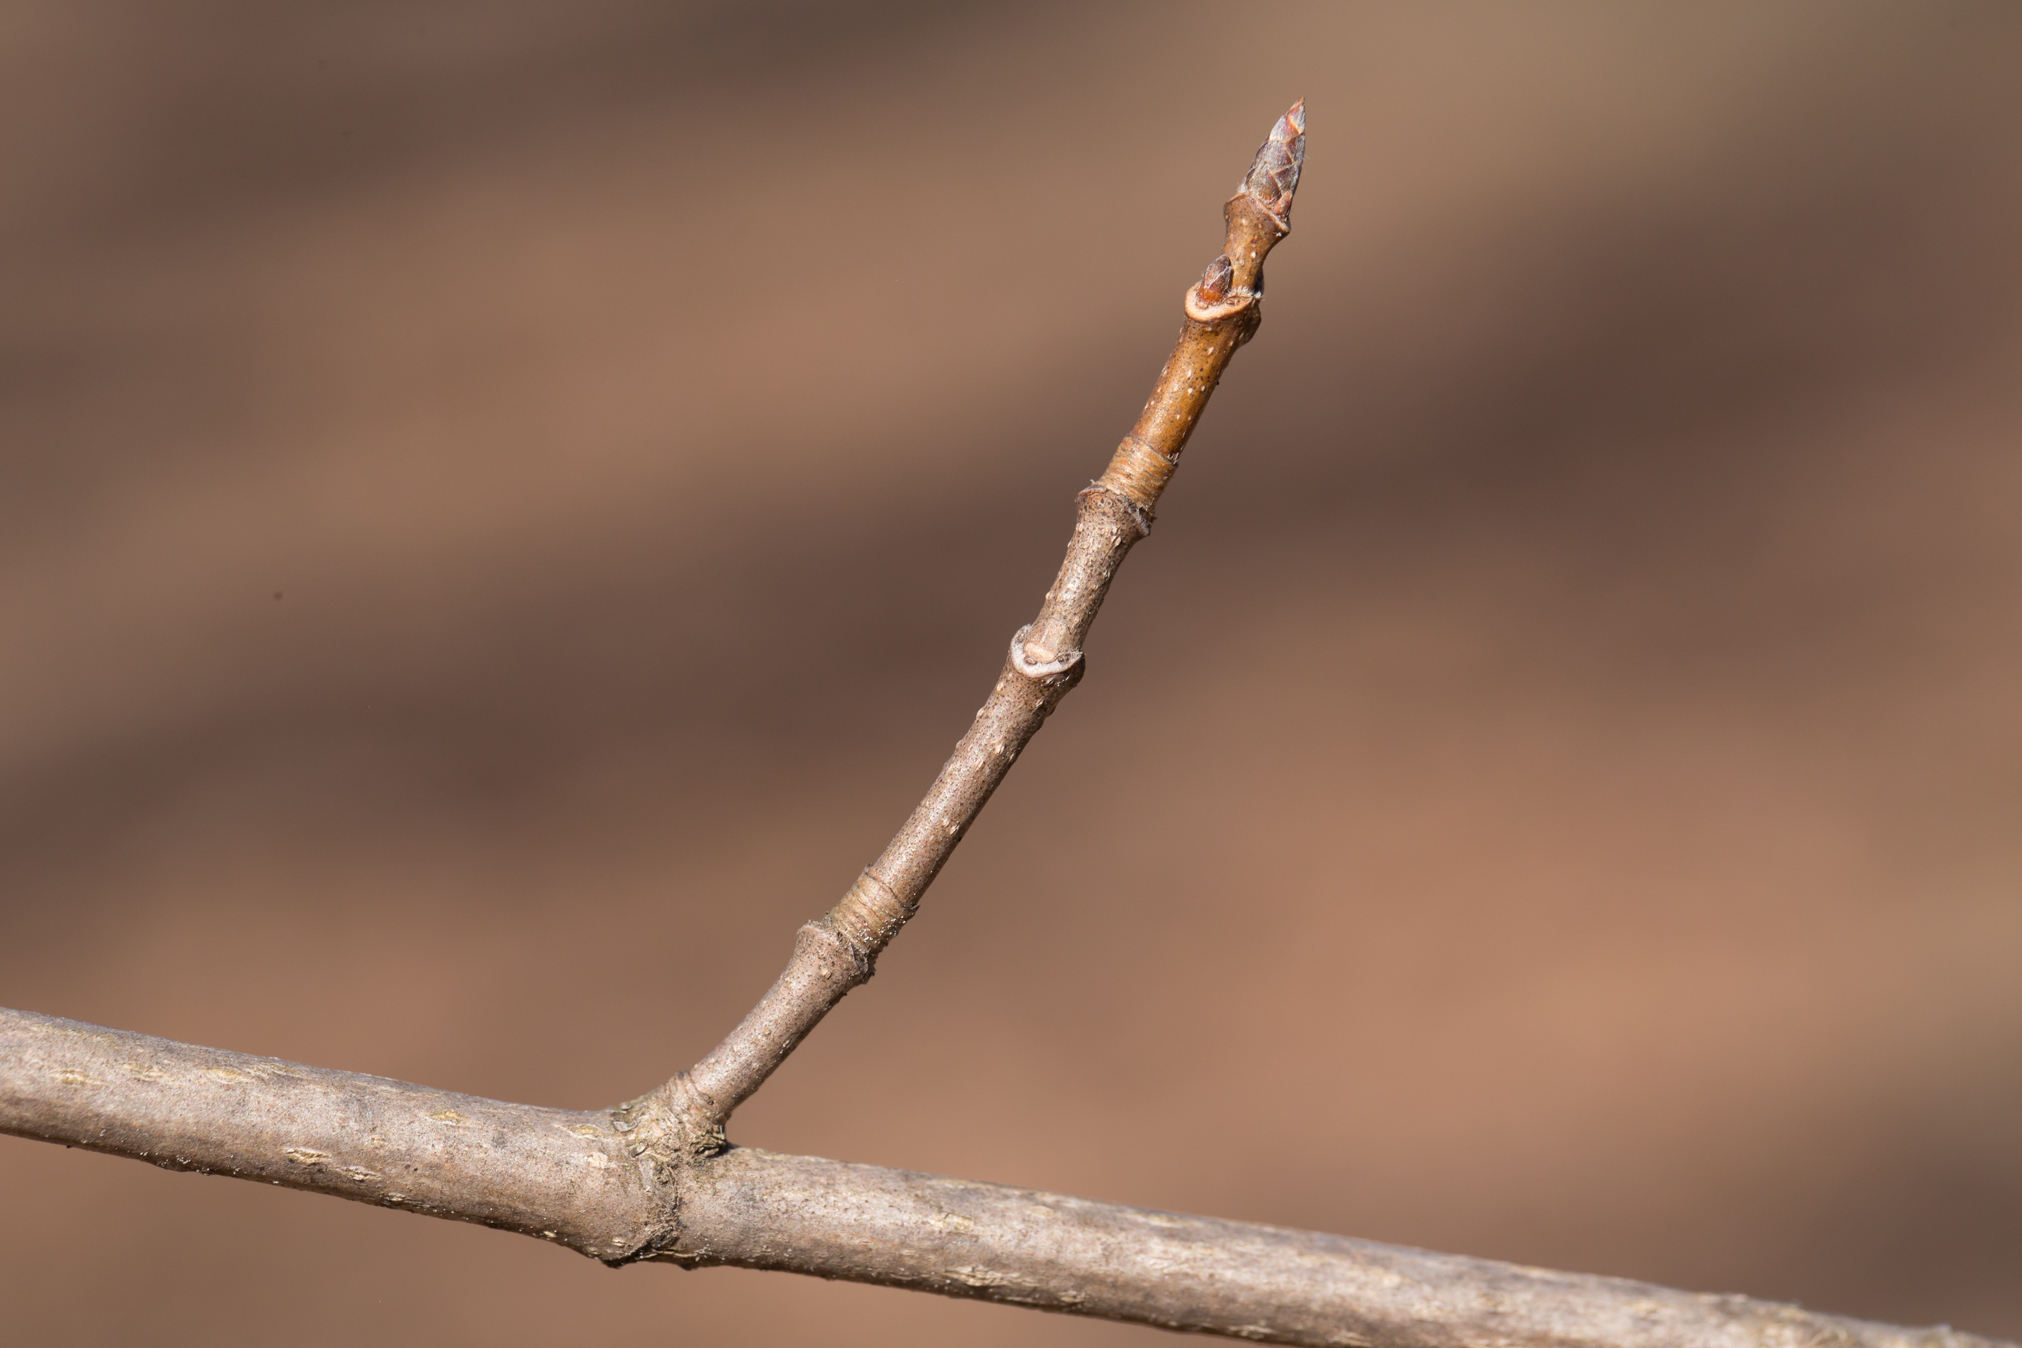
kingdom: Plantae
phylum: Tracheophyta
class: Magnoliopsida
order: Sapindales
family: Sapindaceae
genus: Acer
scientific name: Acer saccharum
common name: Sugar maple
